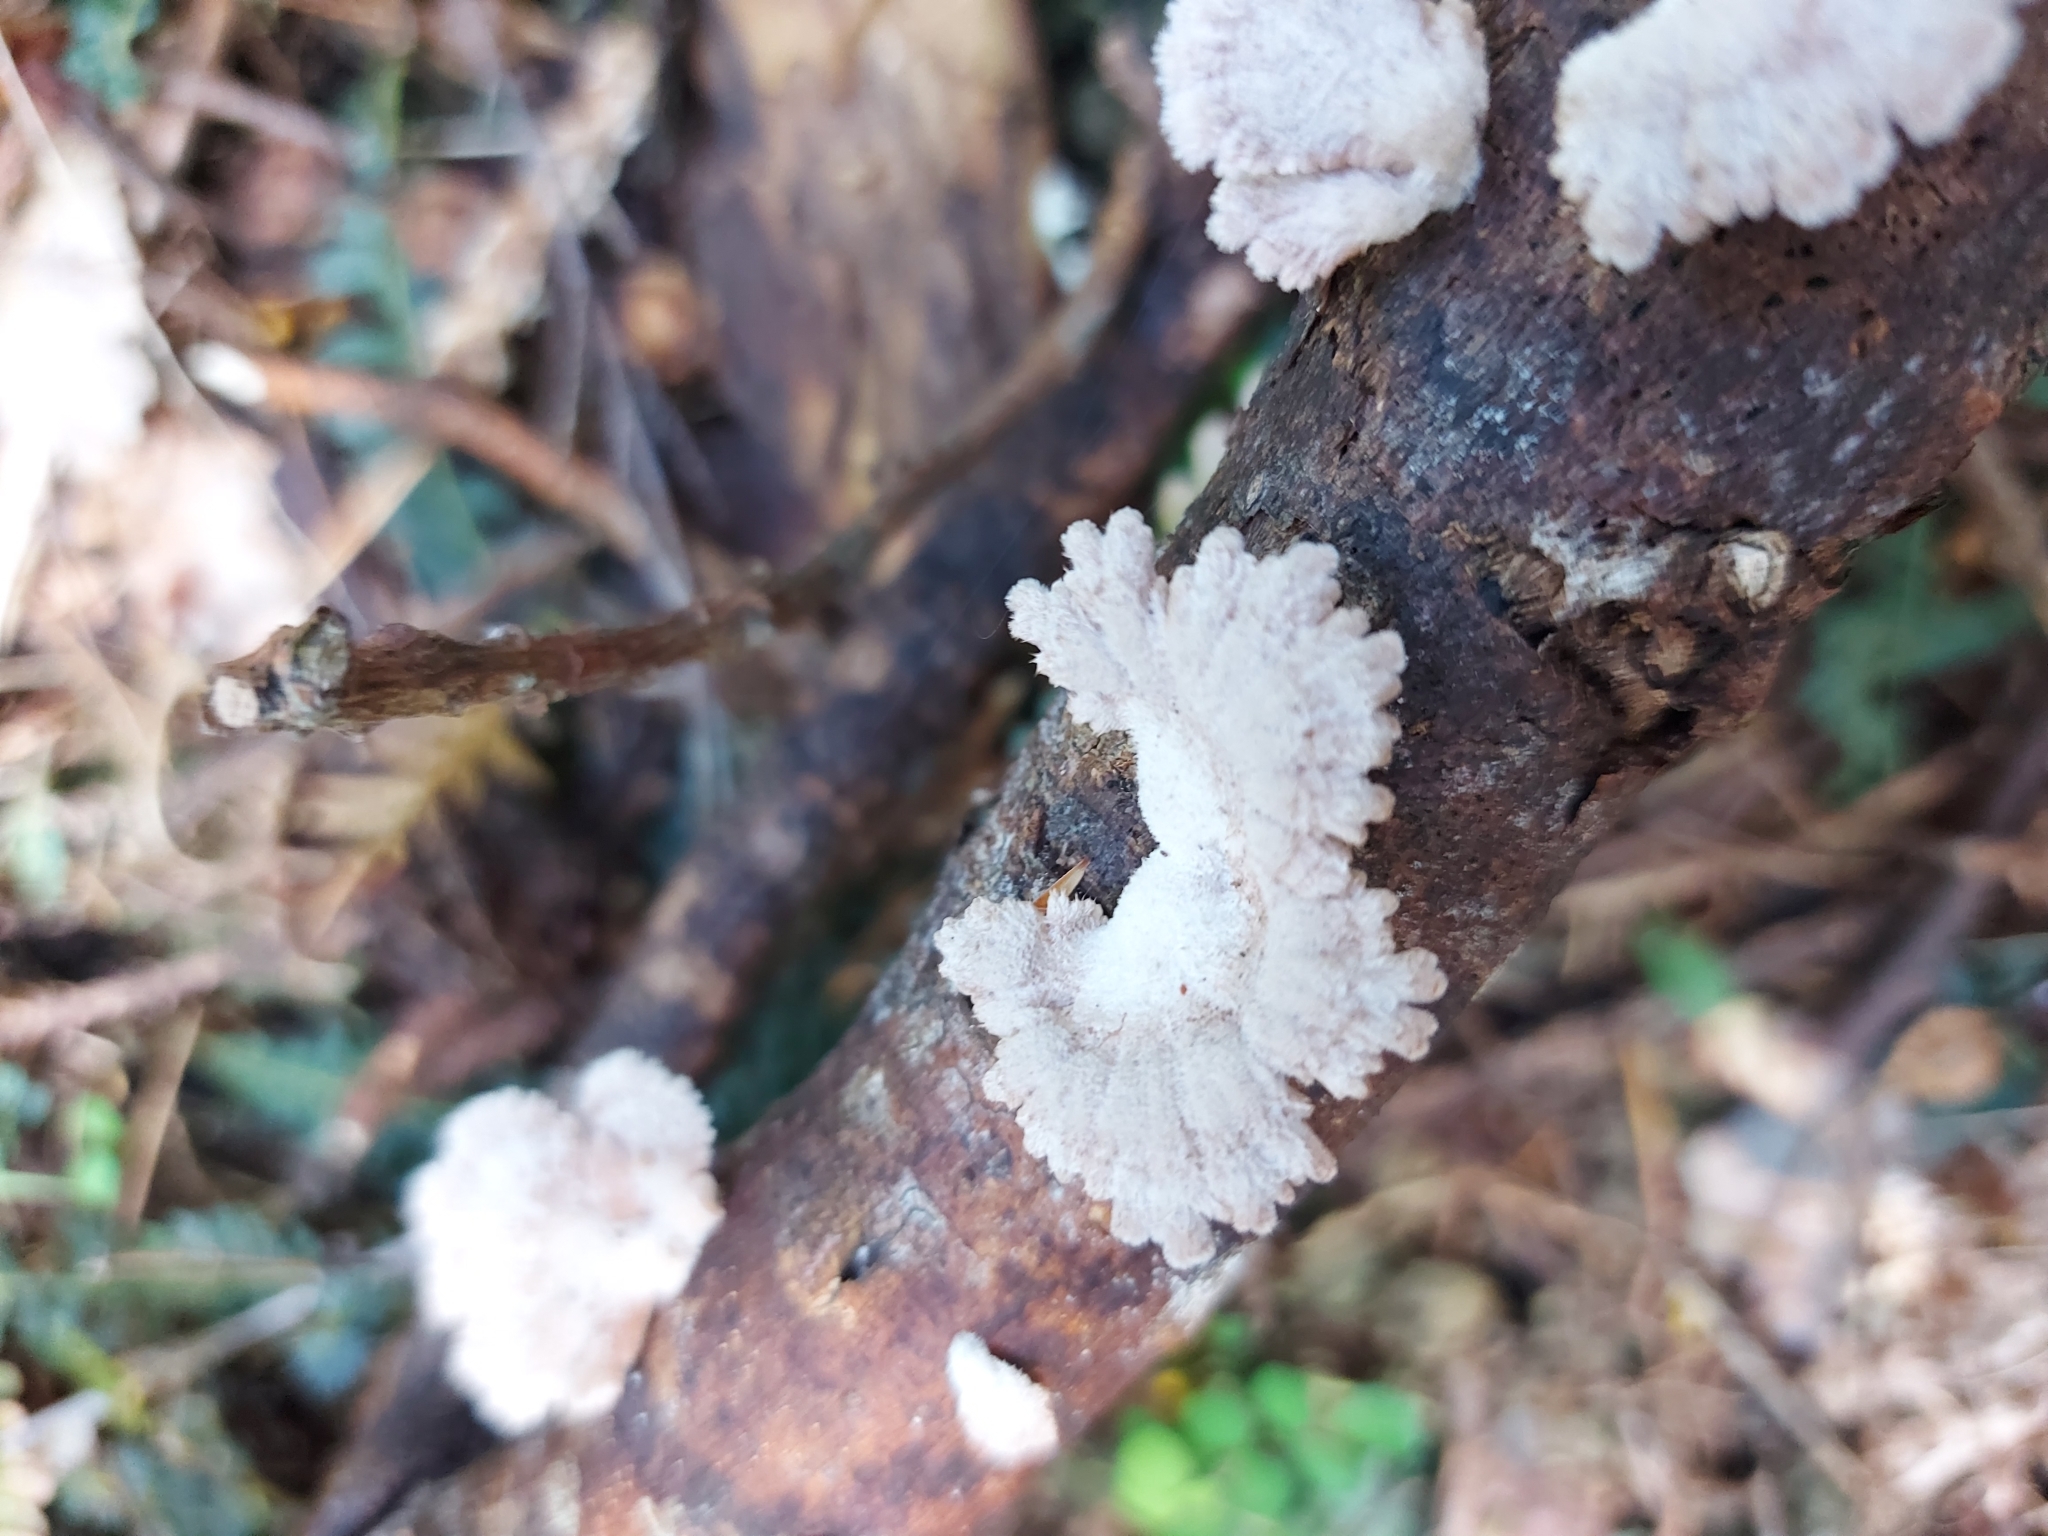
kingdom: Fungi
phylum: Basidiomycota
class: Agaricomycetes
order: Agaricales
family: Schizophyllaceae
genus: Schizophyllum
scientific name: Schizophyllum commune
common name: Common porecrust
